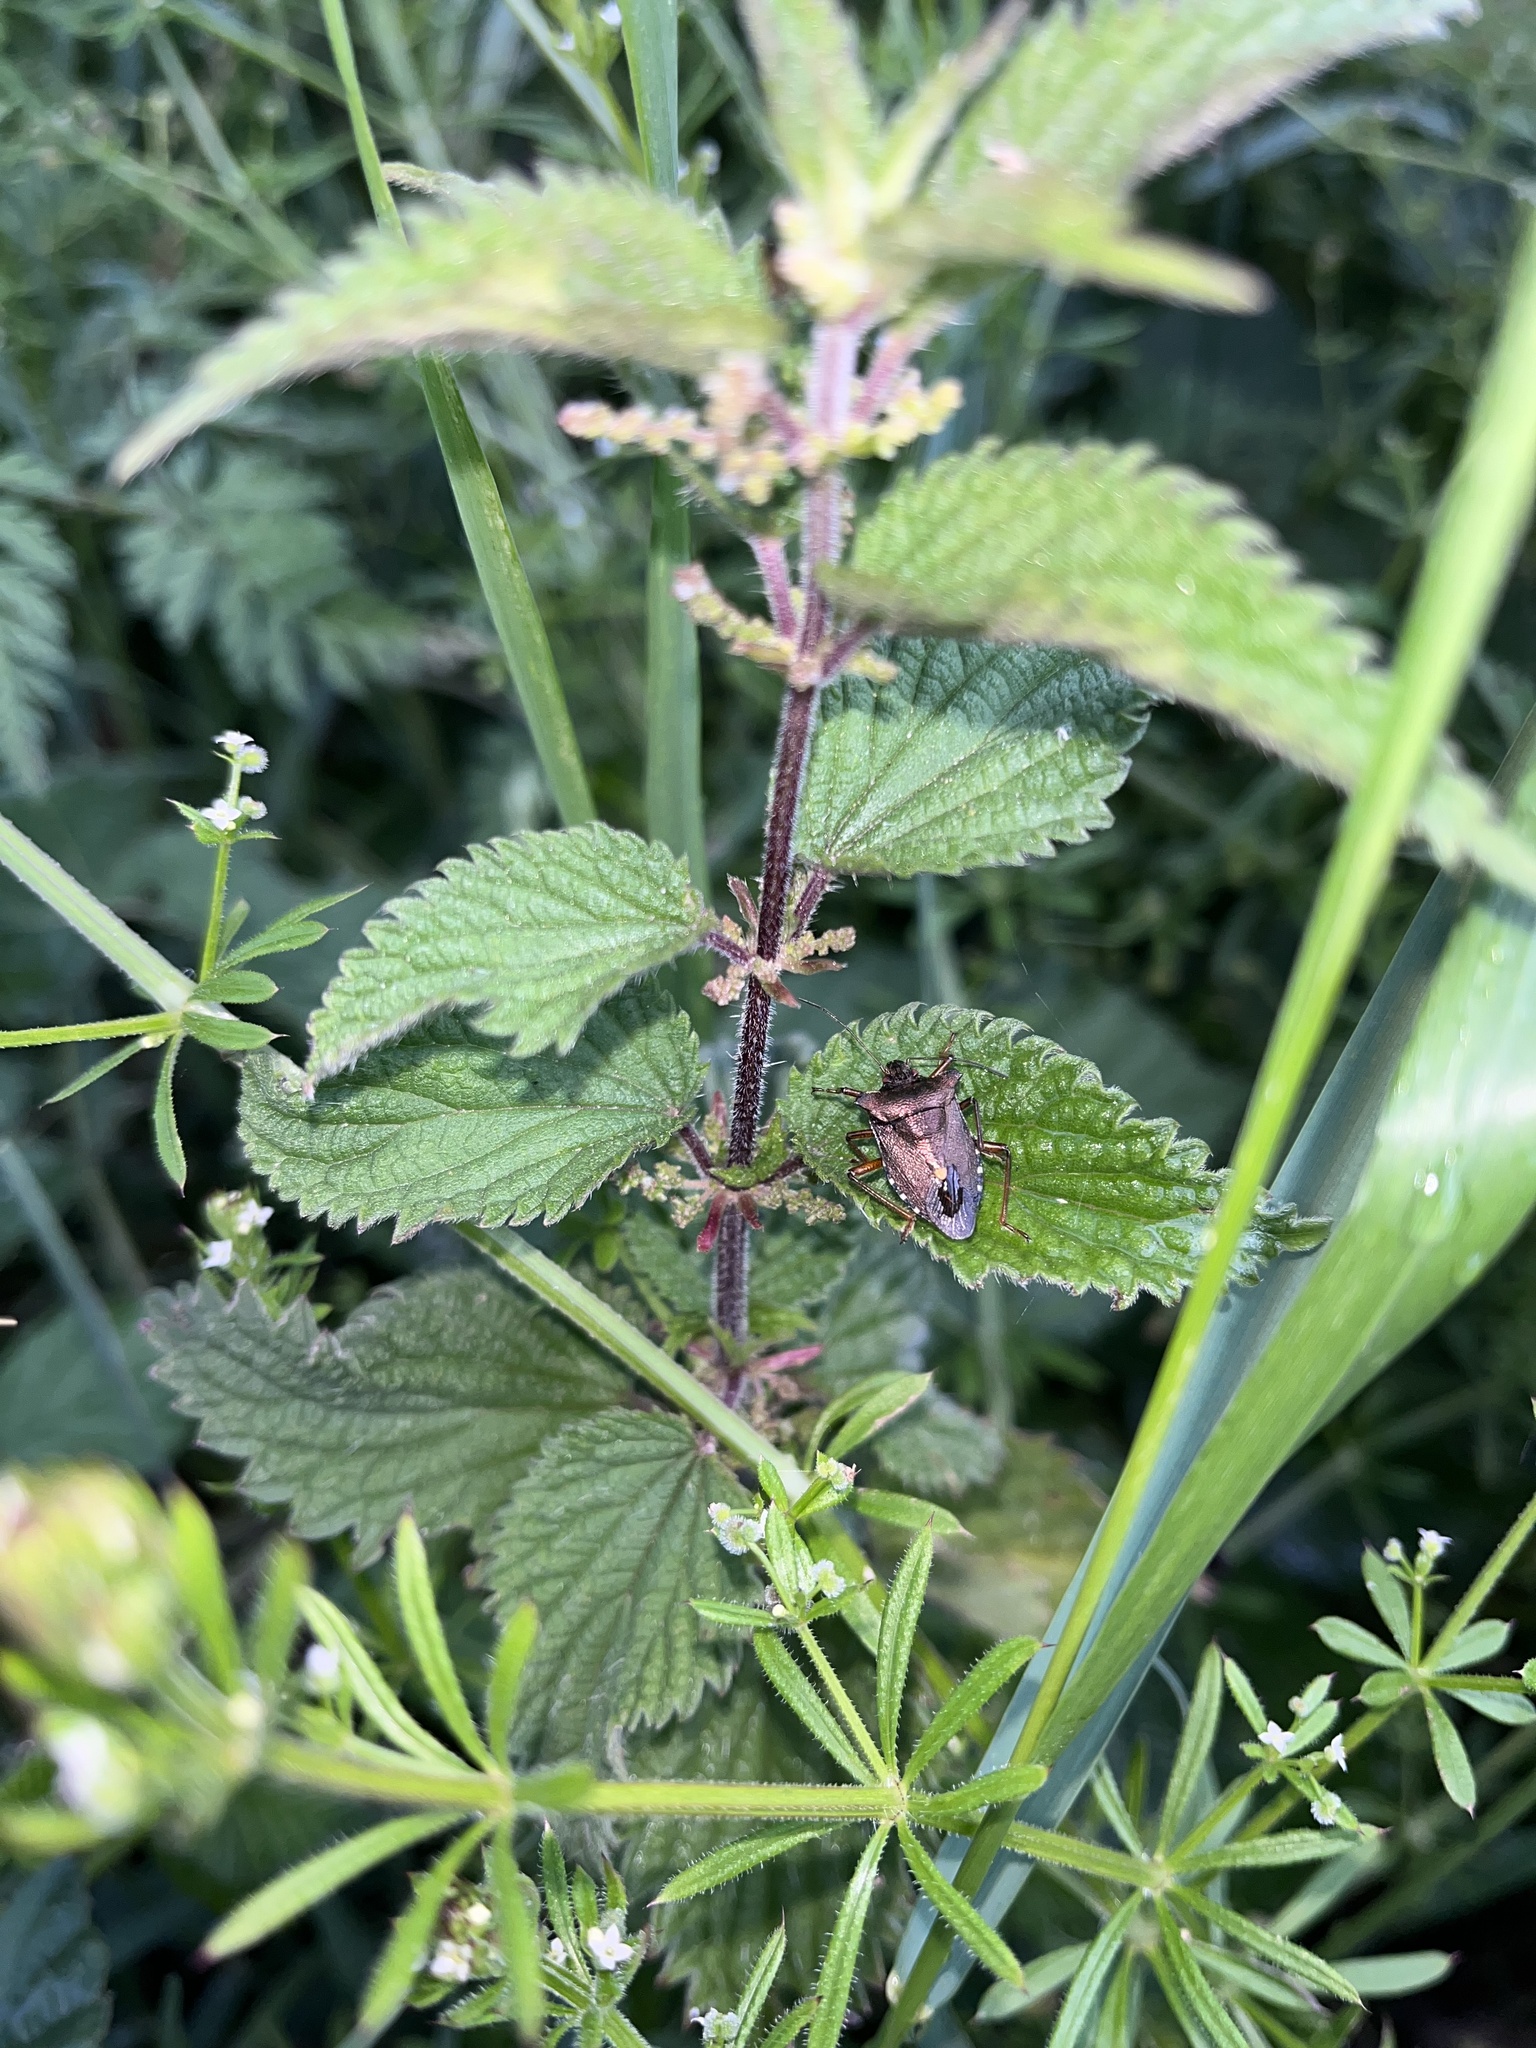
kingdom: Animalia
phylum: Arthropoda
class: Insecta
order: Hemiptera
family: Pentatomidae
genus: Pentatoma
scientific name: Pentatoma rufipes
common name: Forest bug
